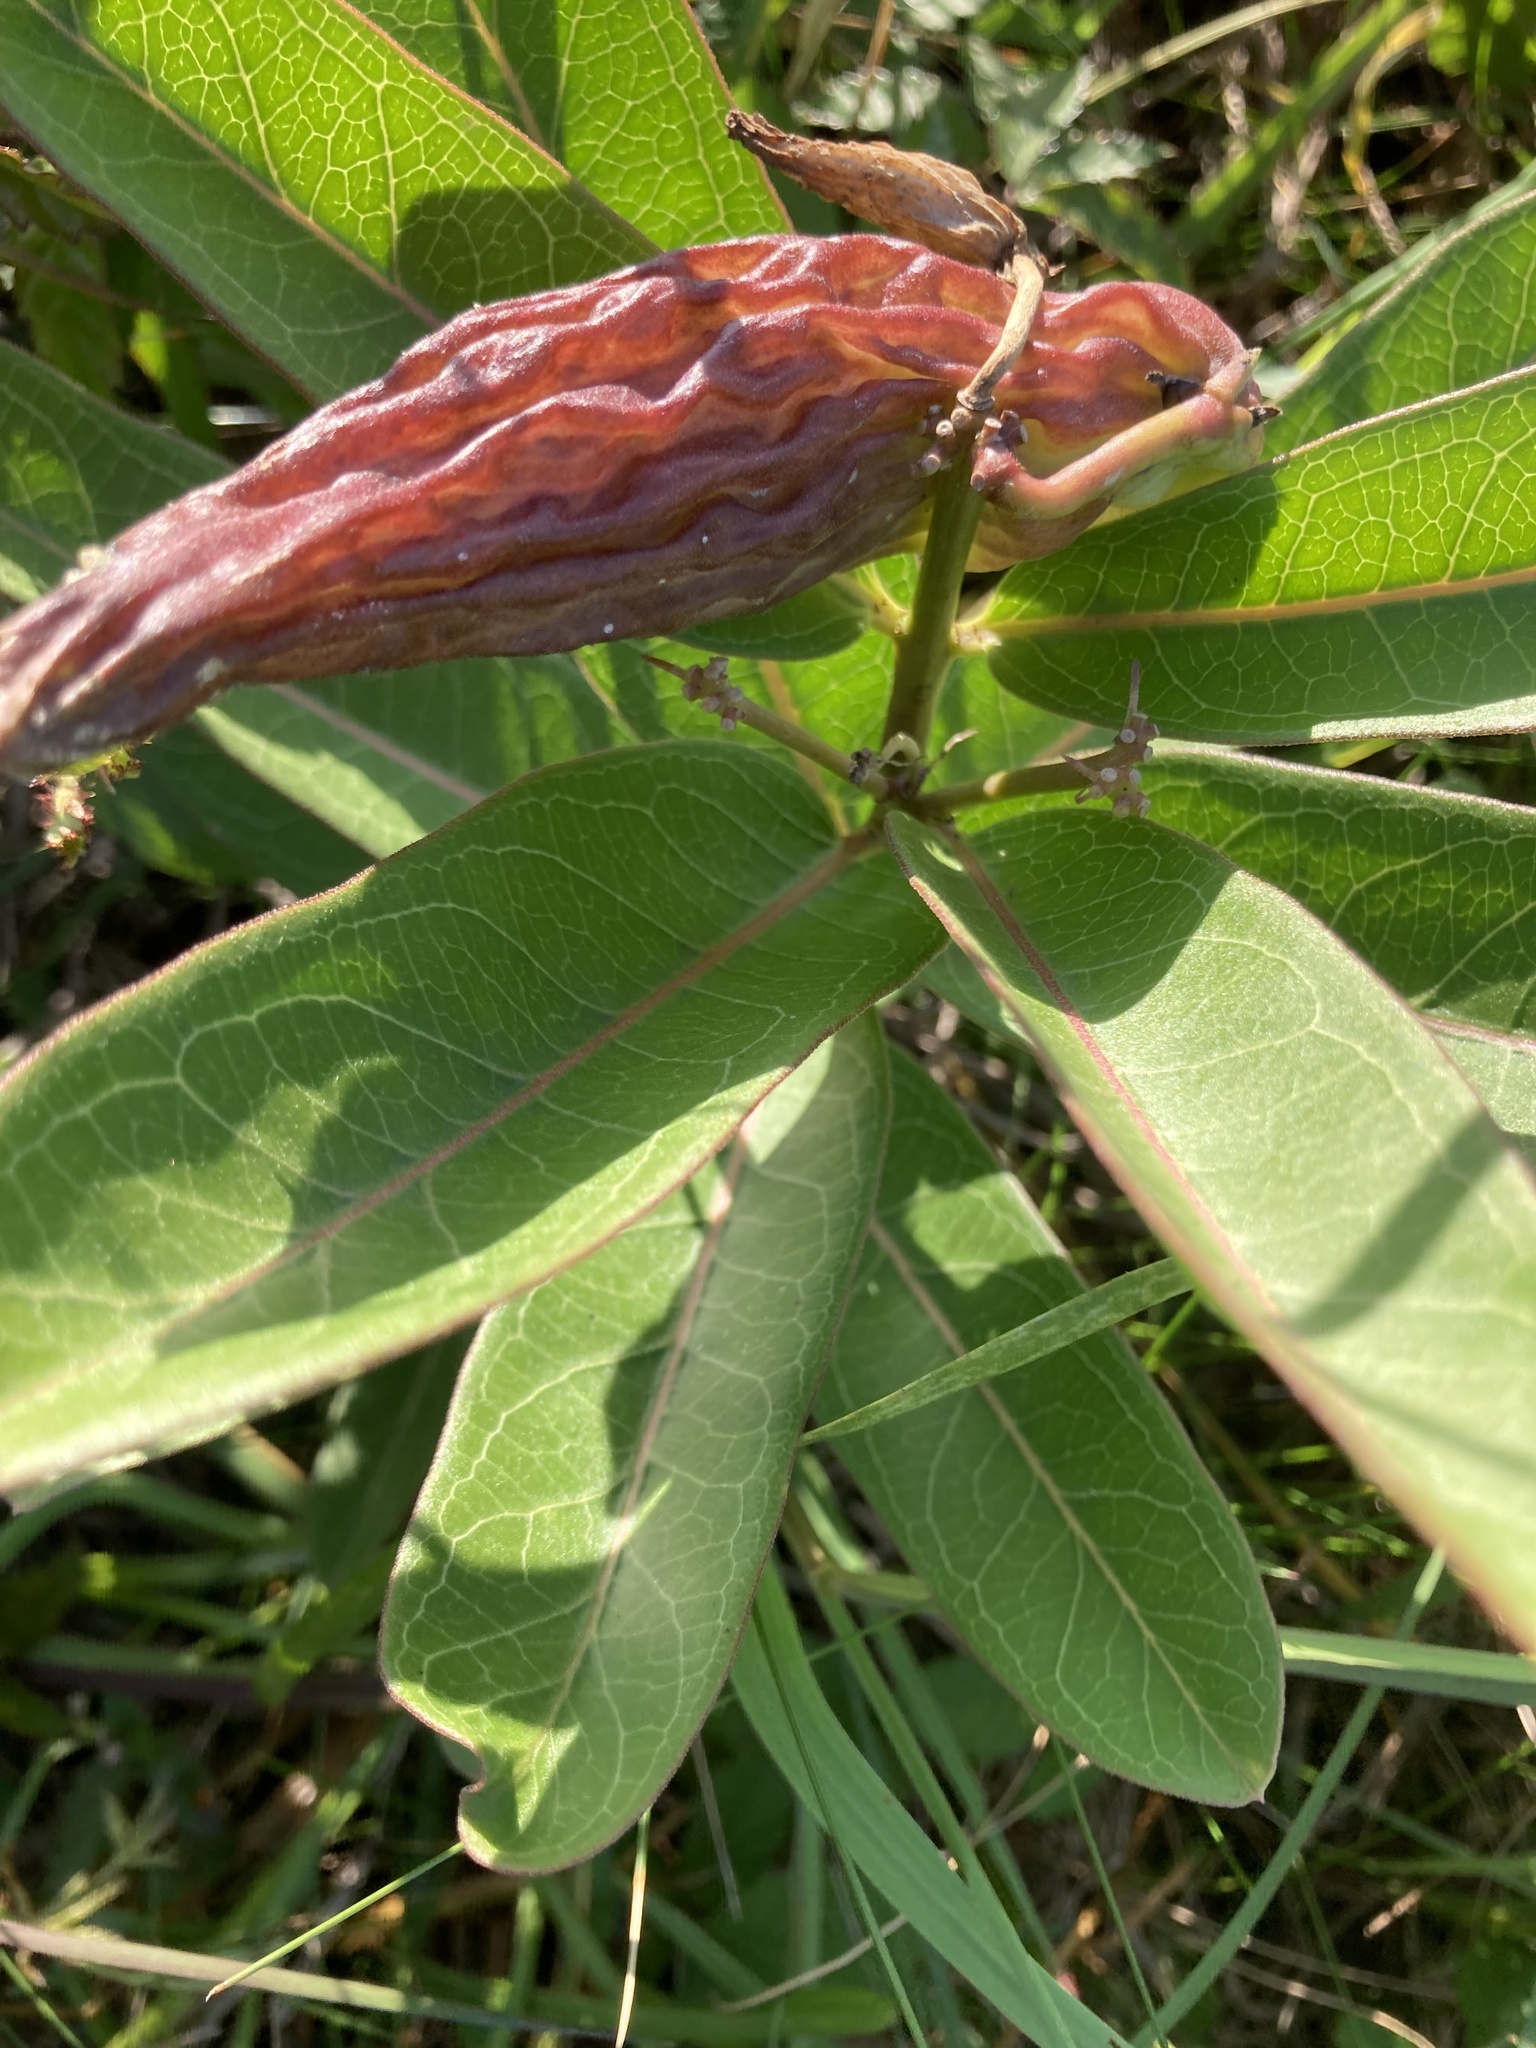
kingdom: Plantae
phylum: Tracheophyta
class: Magnoliopsida
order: Gentianales
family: Apocynaceae
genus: Asclepias
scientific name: Asclepias viridis
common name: Antelope-horns
